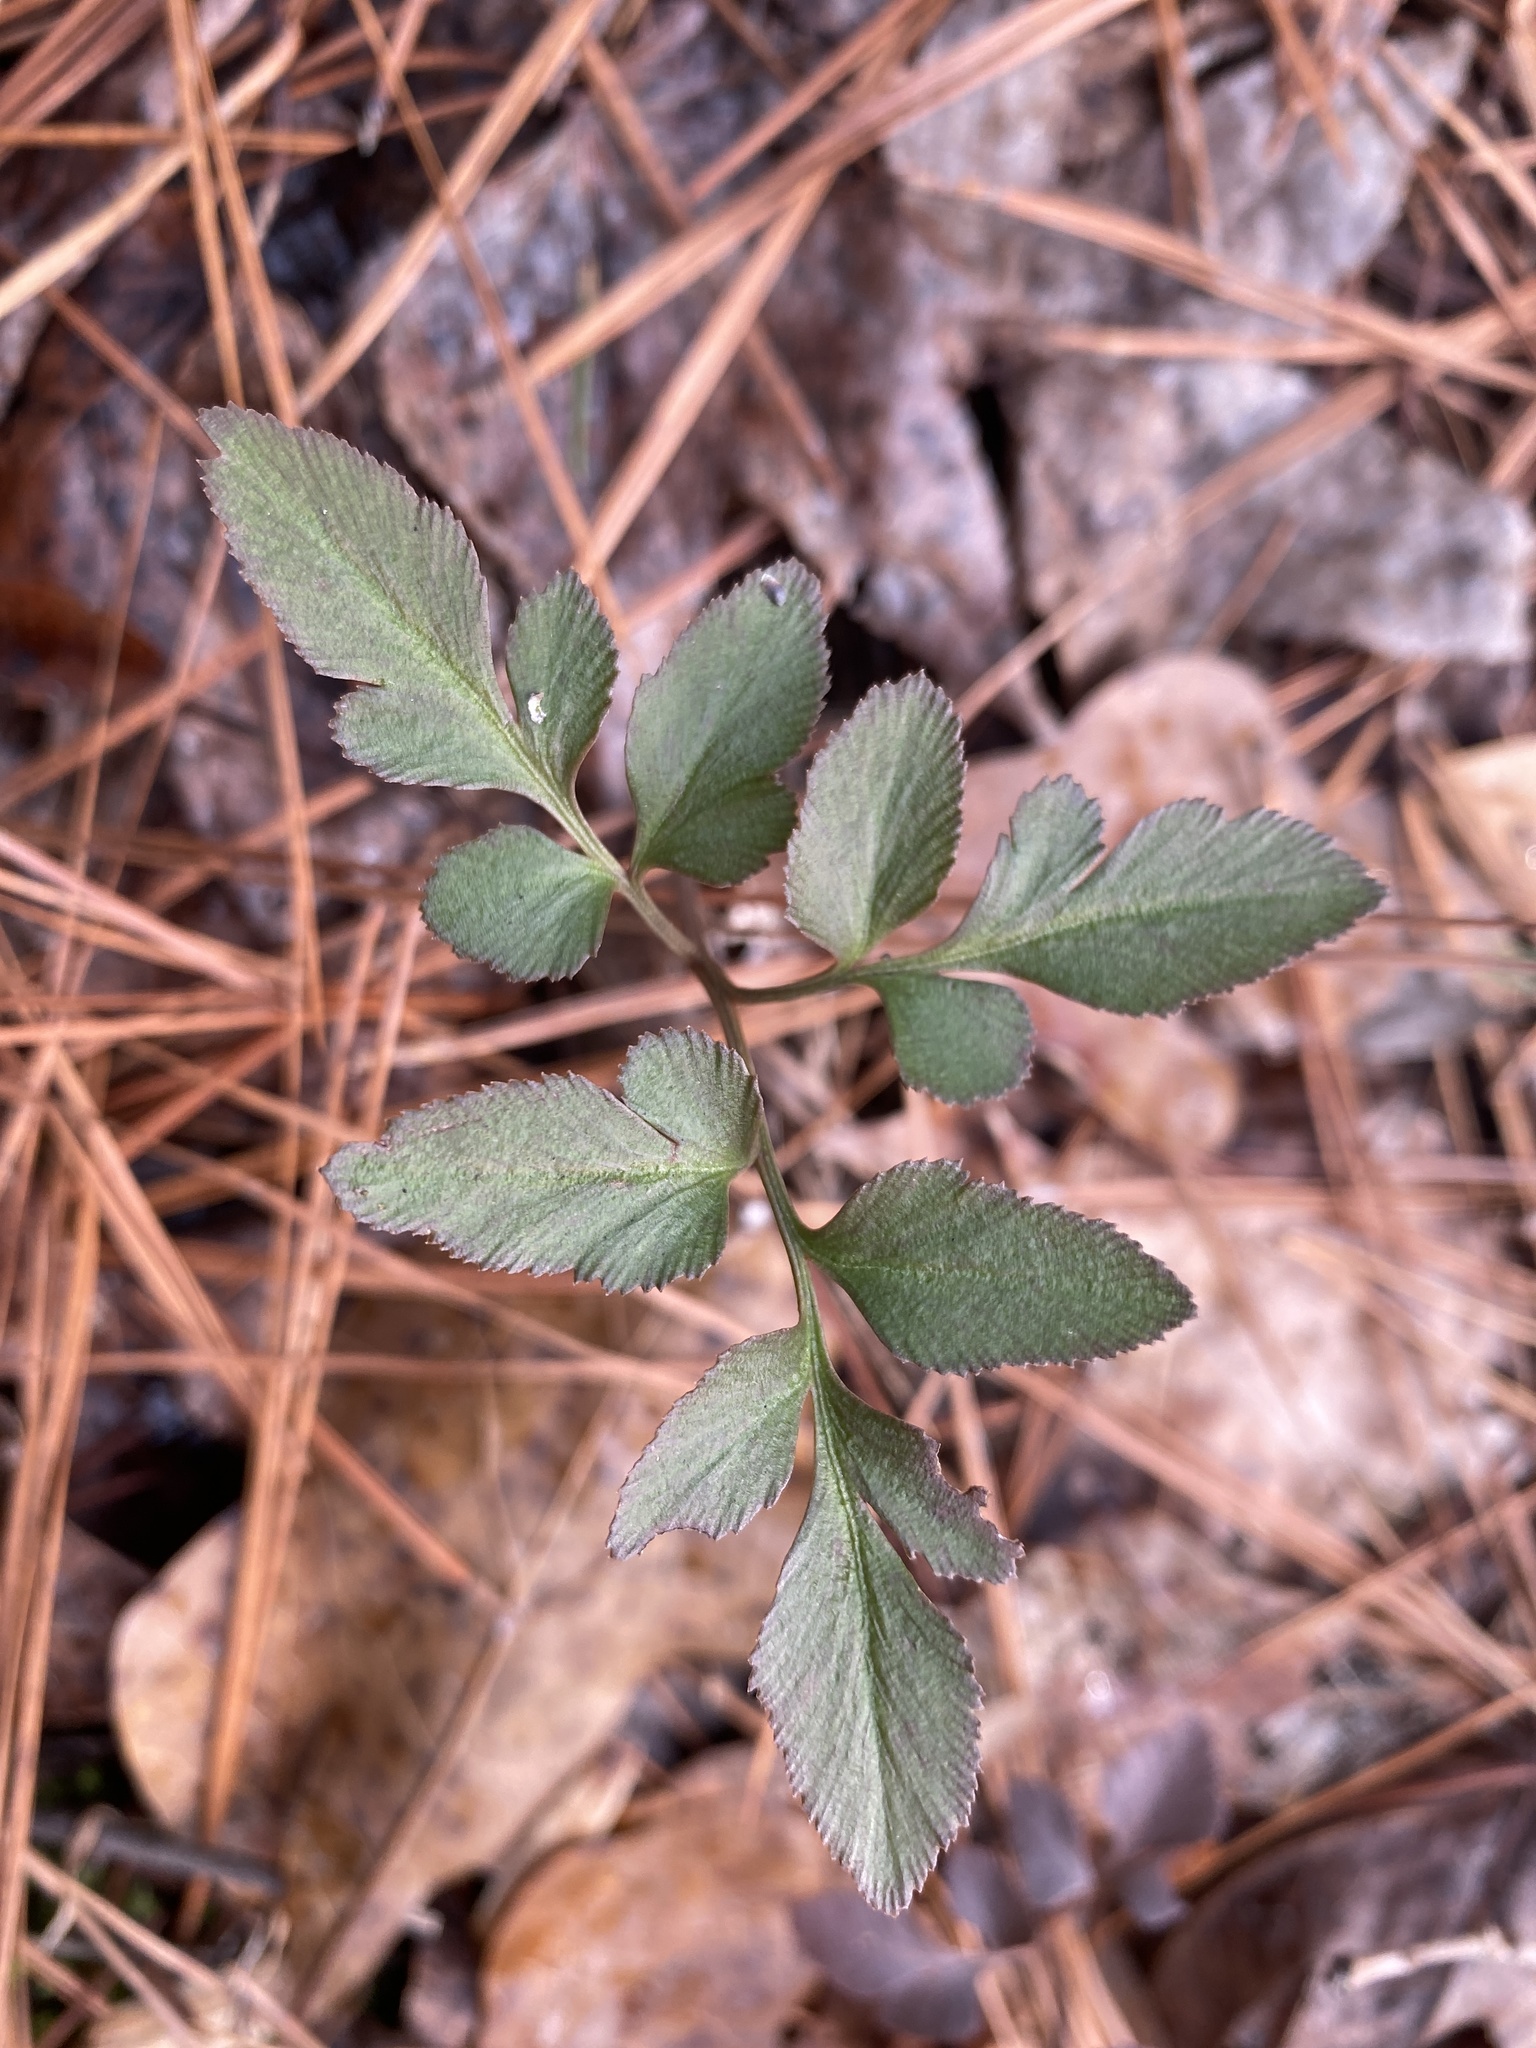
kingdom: Plantae
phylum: Tracheophyta
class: Polypodiopsida
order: Ophioglossales
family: Ophioglossaceae
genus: Sceptridium
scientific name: Sceptridium biternatum
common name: Sparse-lobed grapefern
